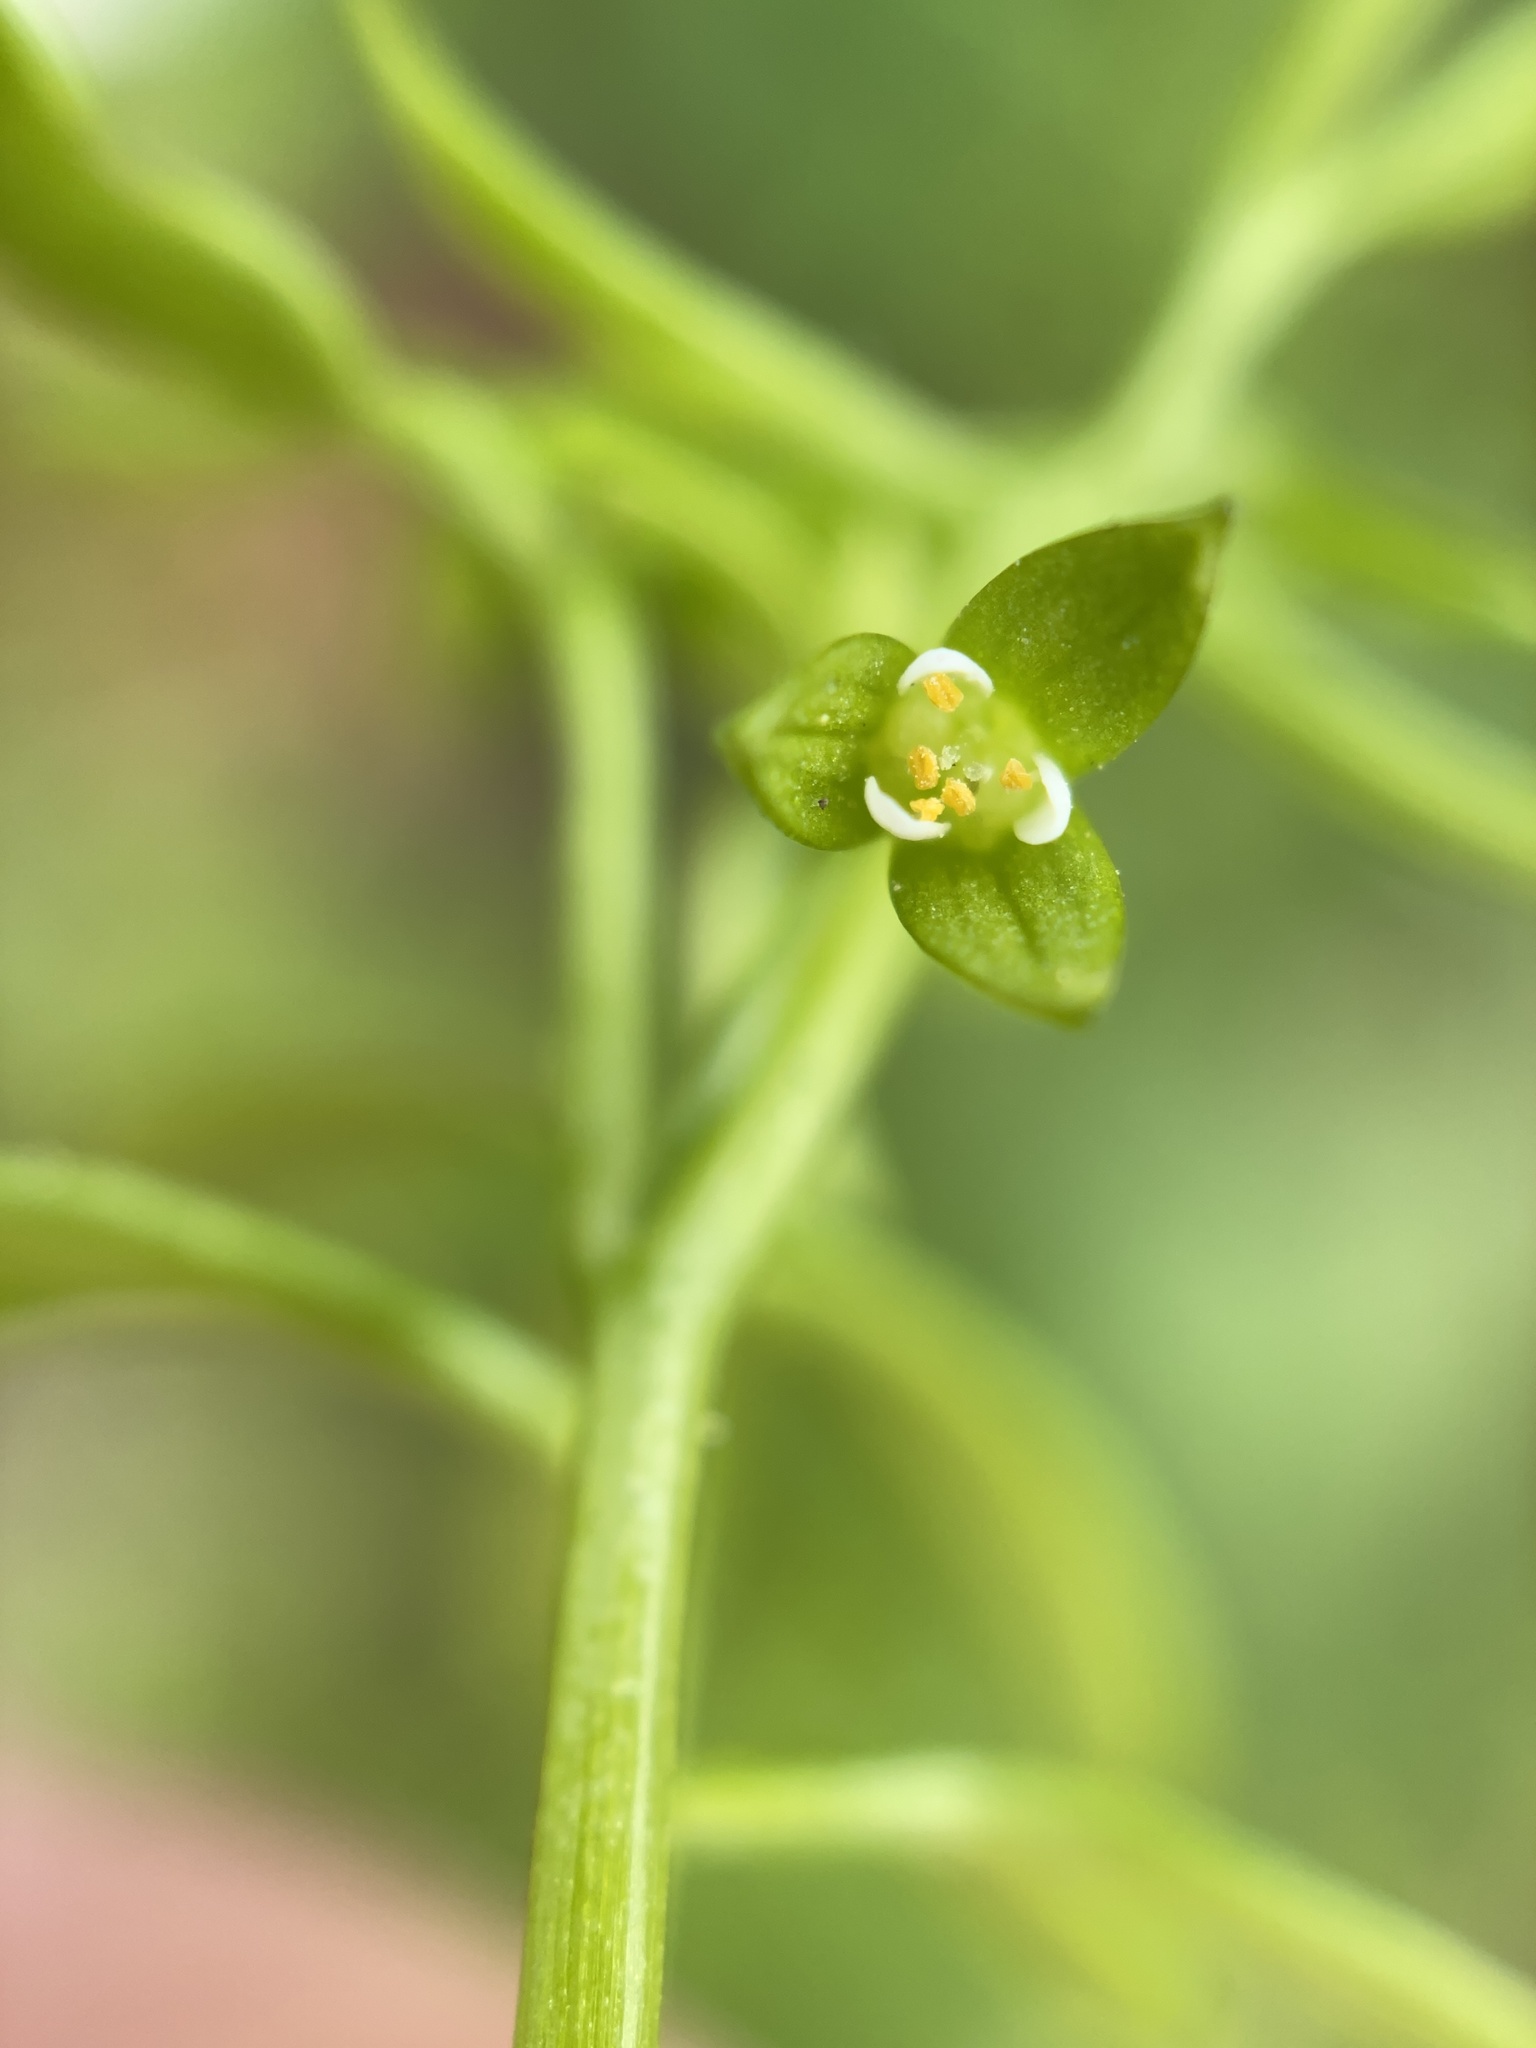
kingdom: Plantae
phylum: Tracheophyta
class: Magnoliopsida
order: Brassicales
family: Limnanthaceae
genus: Floerkea
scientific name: Floerkea proserpinacoides
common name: False mermaid
